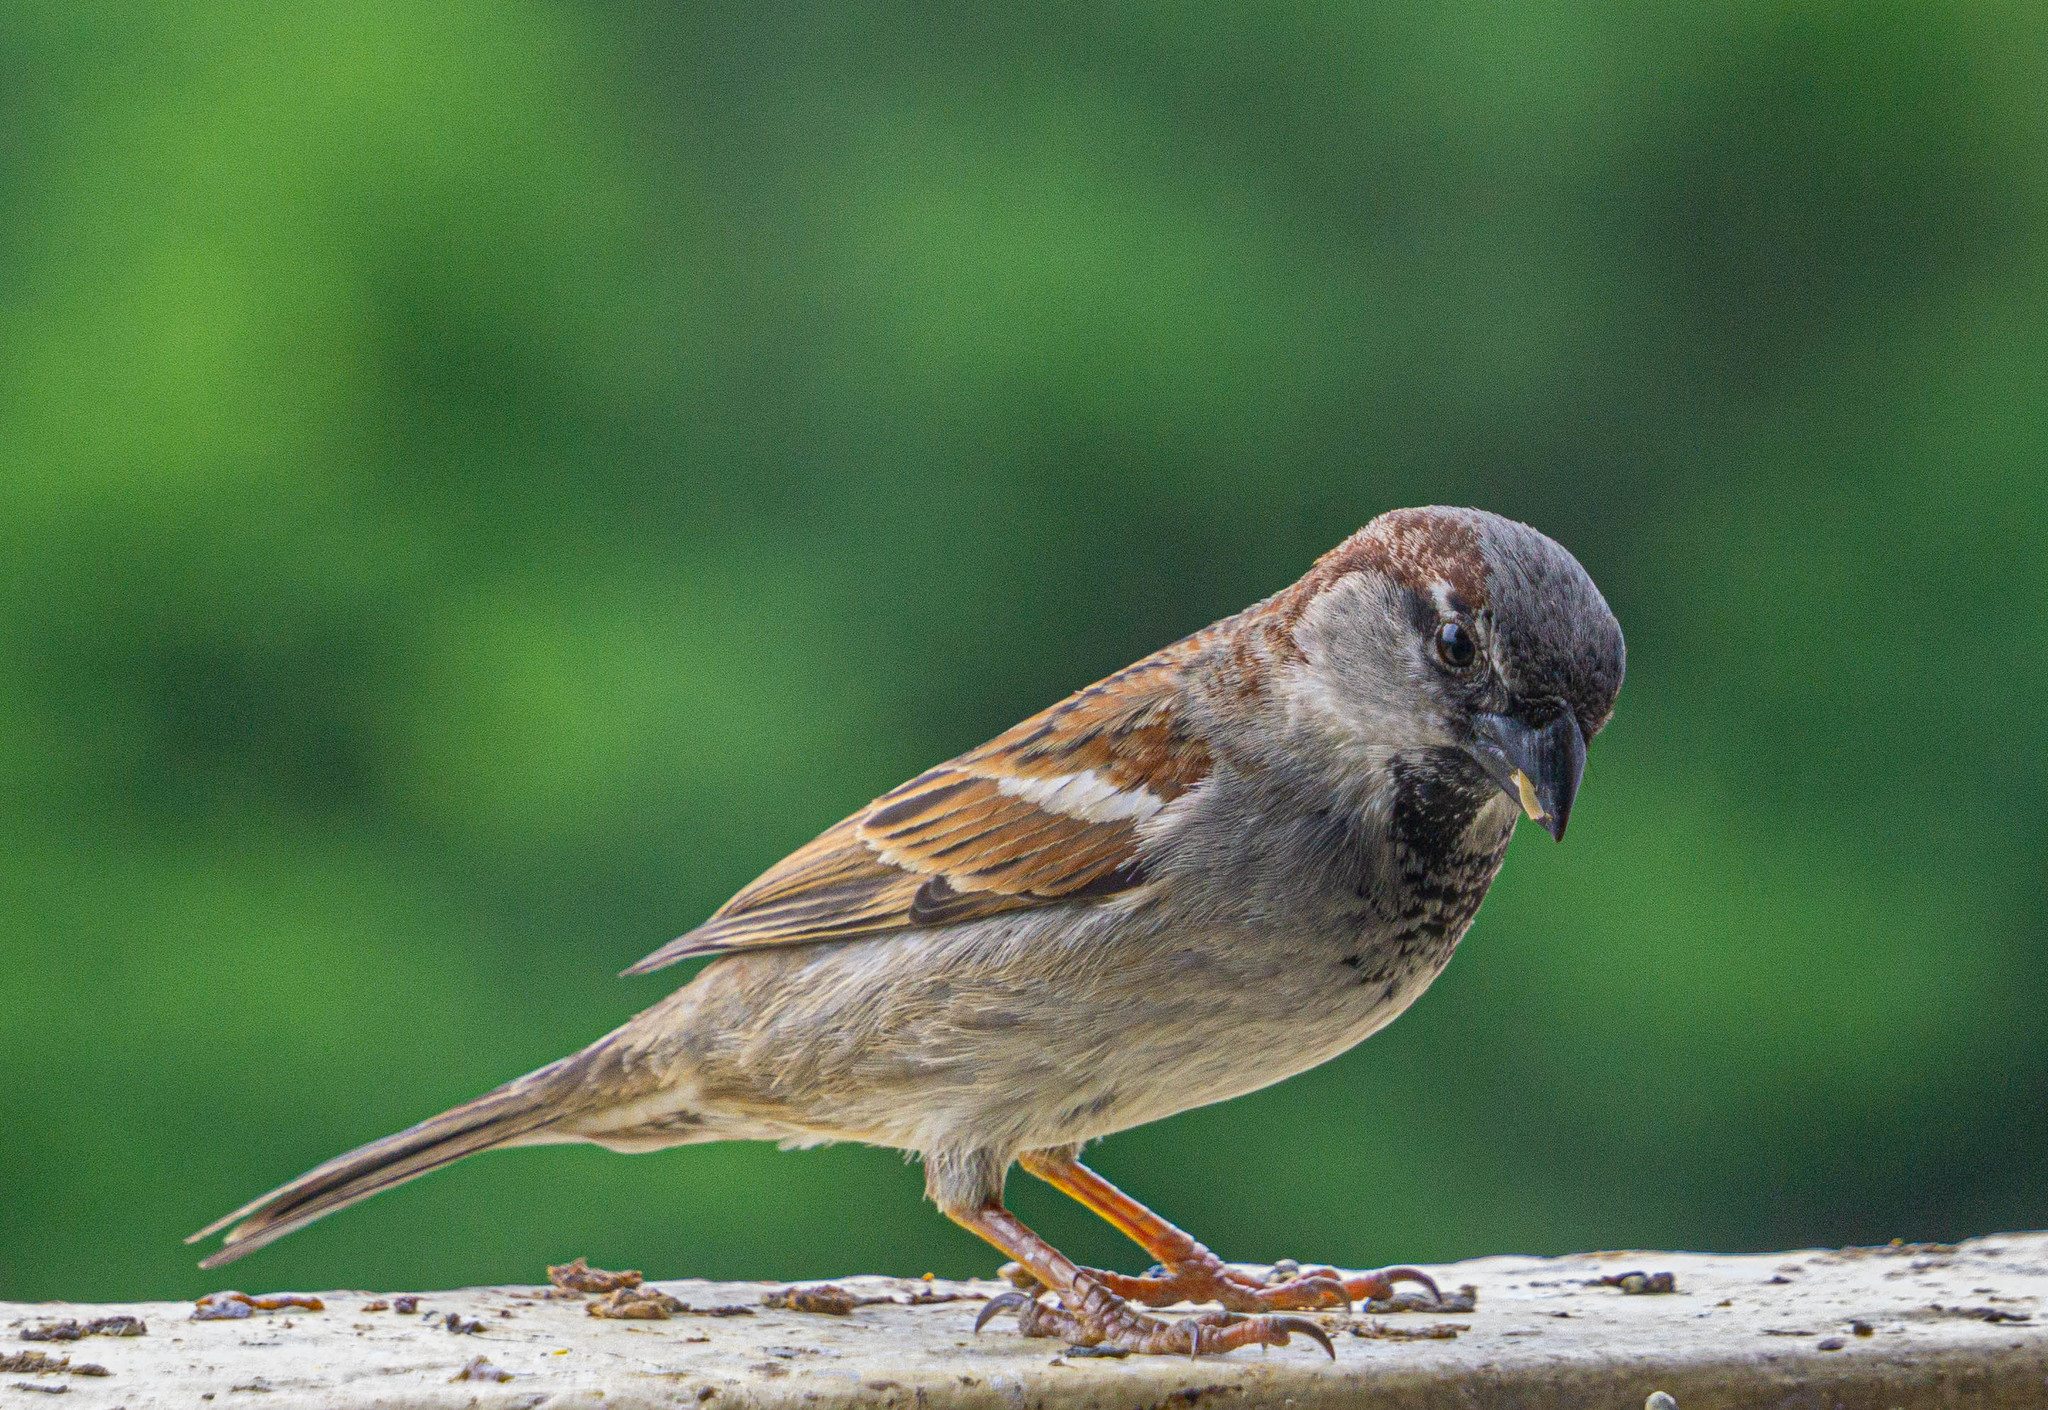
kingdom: Animalia
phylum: Chordata
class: Aves
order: Passeriformes
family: Passeridae
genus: Passer
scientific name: Passer domesticus
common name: House sparrow
